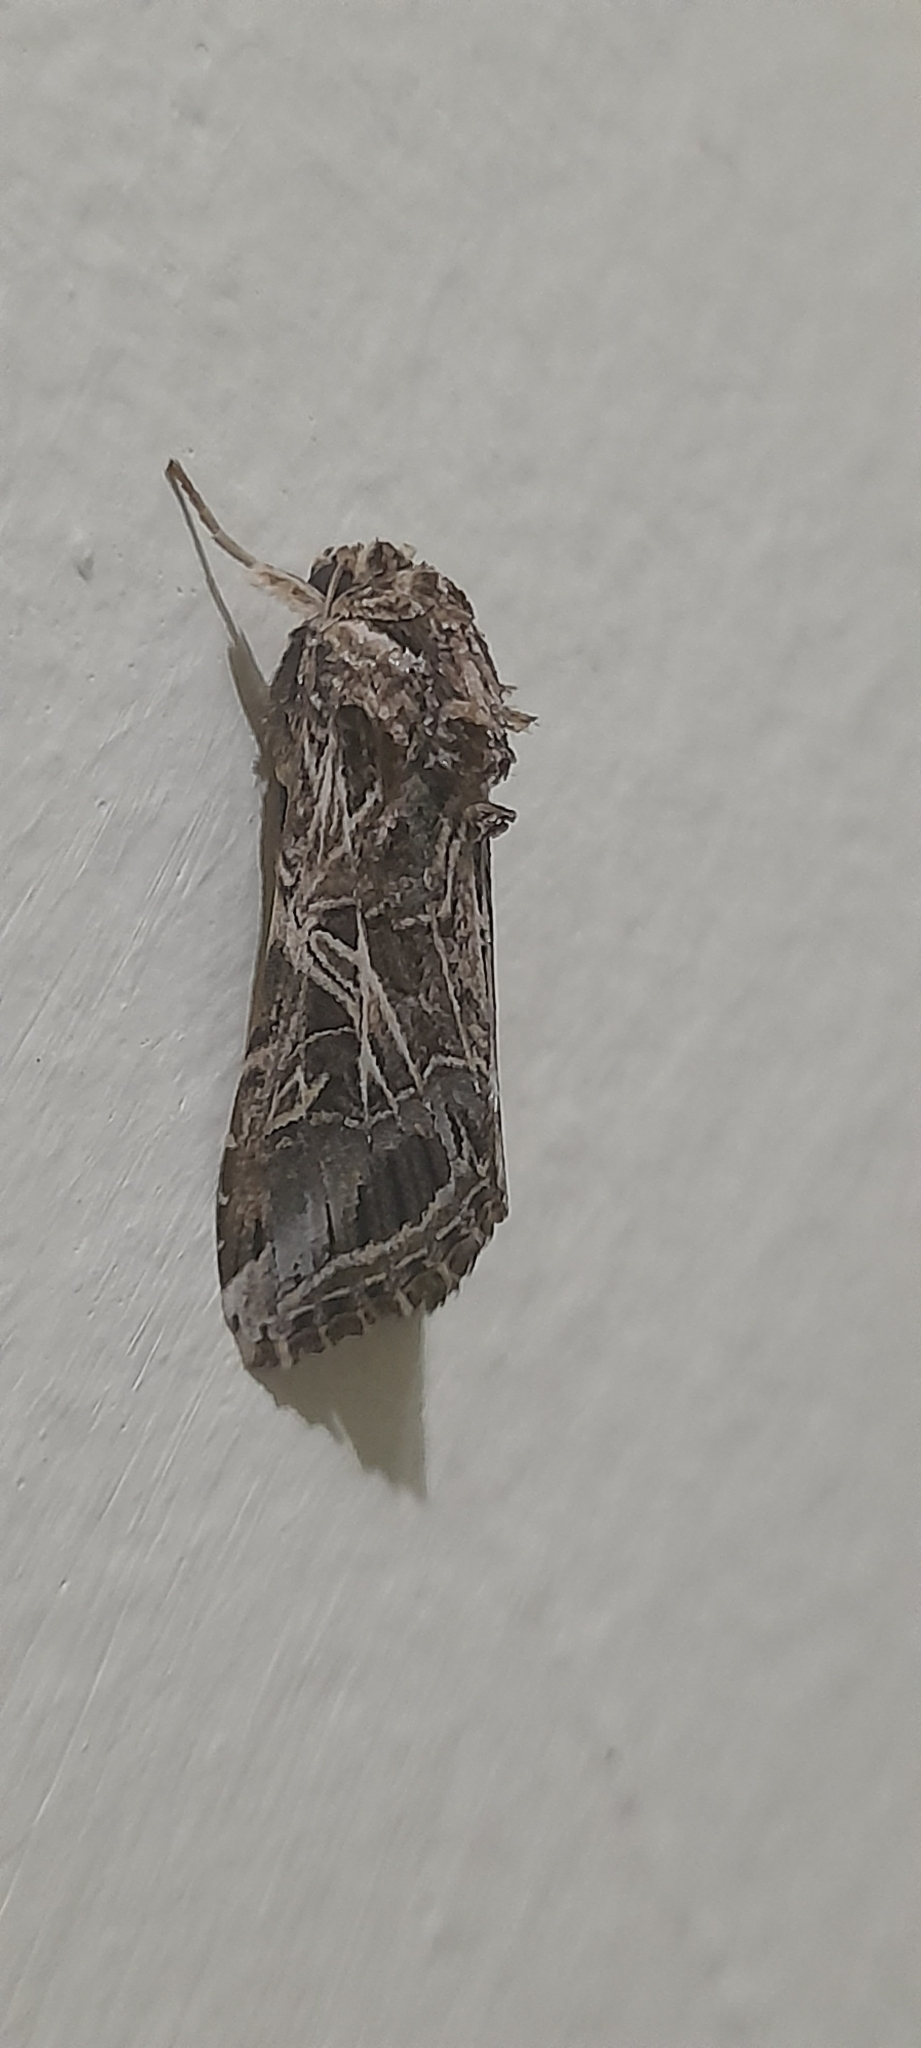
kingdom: Animalia
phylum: Arthropoda
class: Insecta
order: Lepidoptera
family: Noctuidae
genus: Spodoptera
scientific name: Spodoptera litura
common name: Asian cotton leafworm
